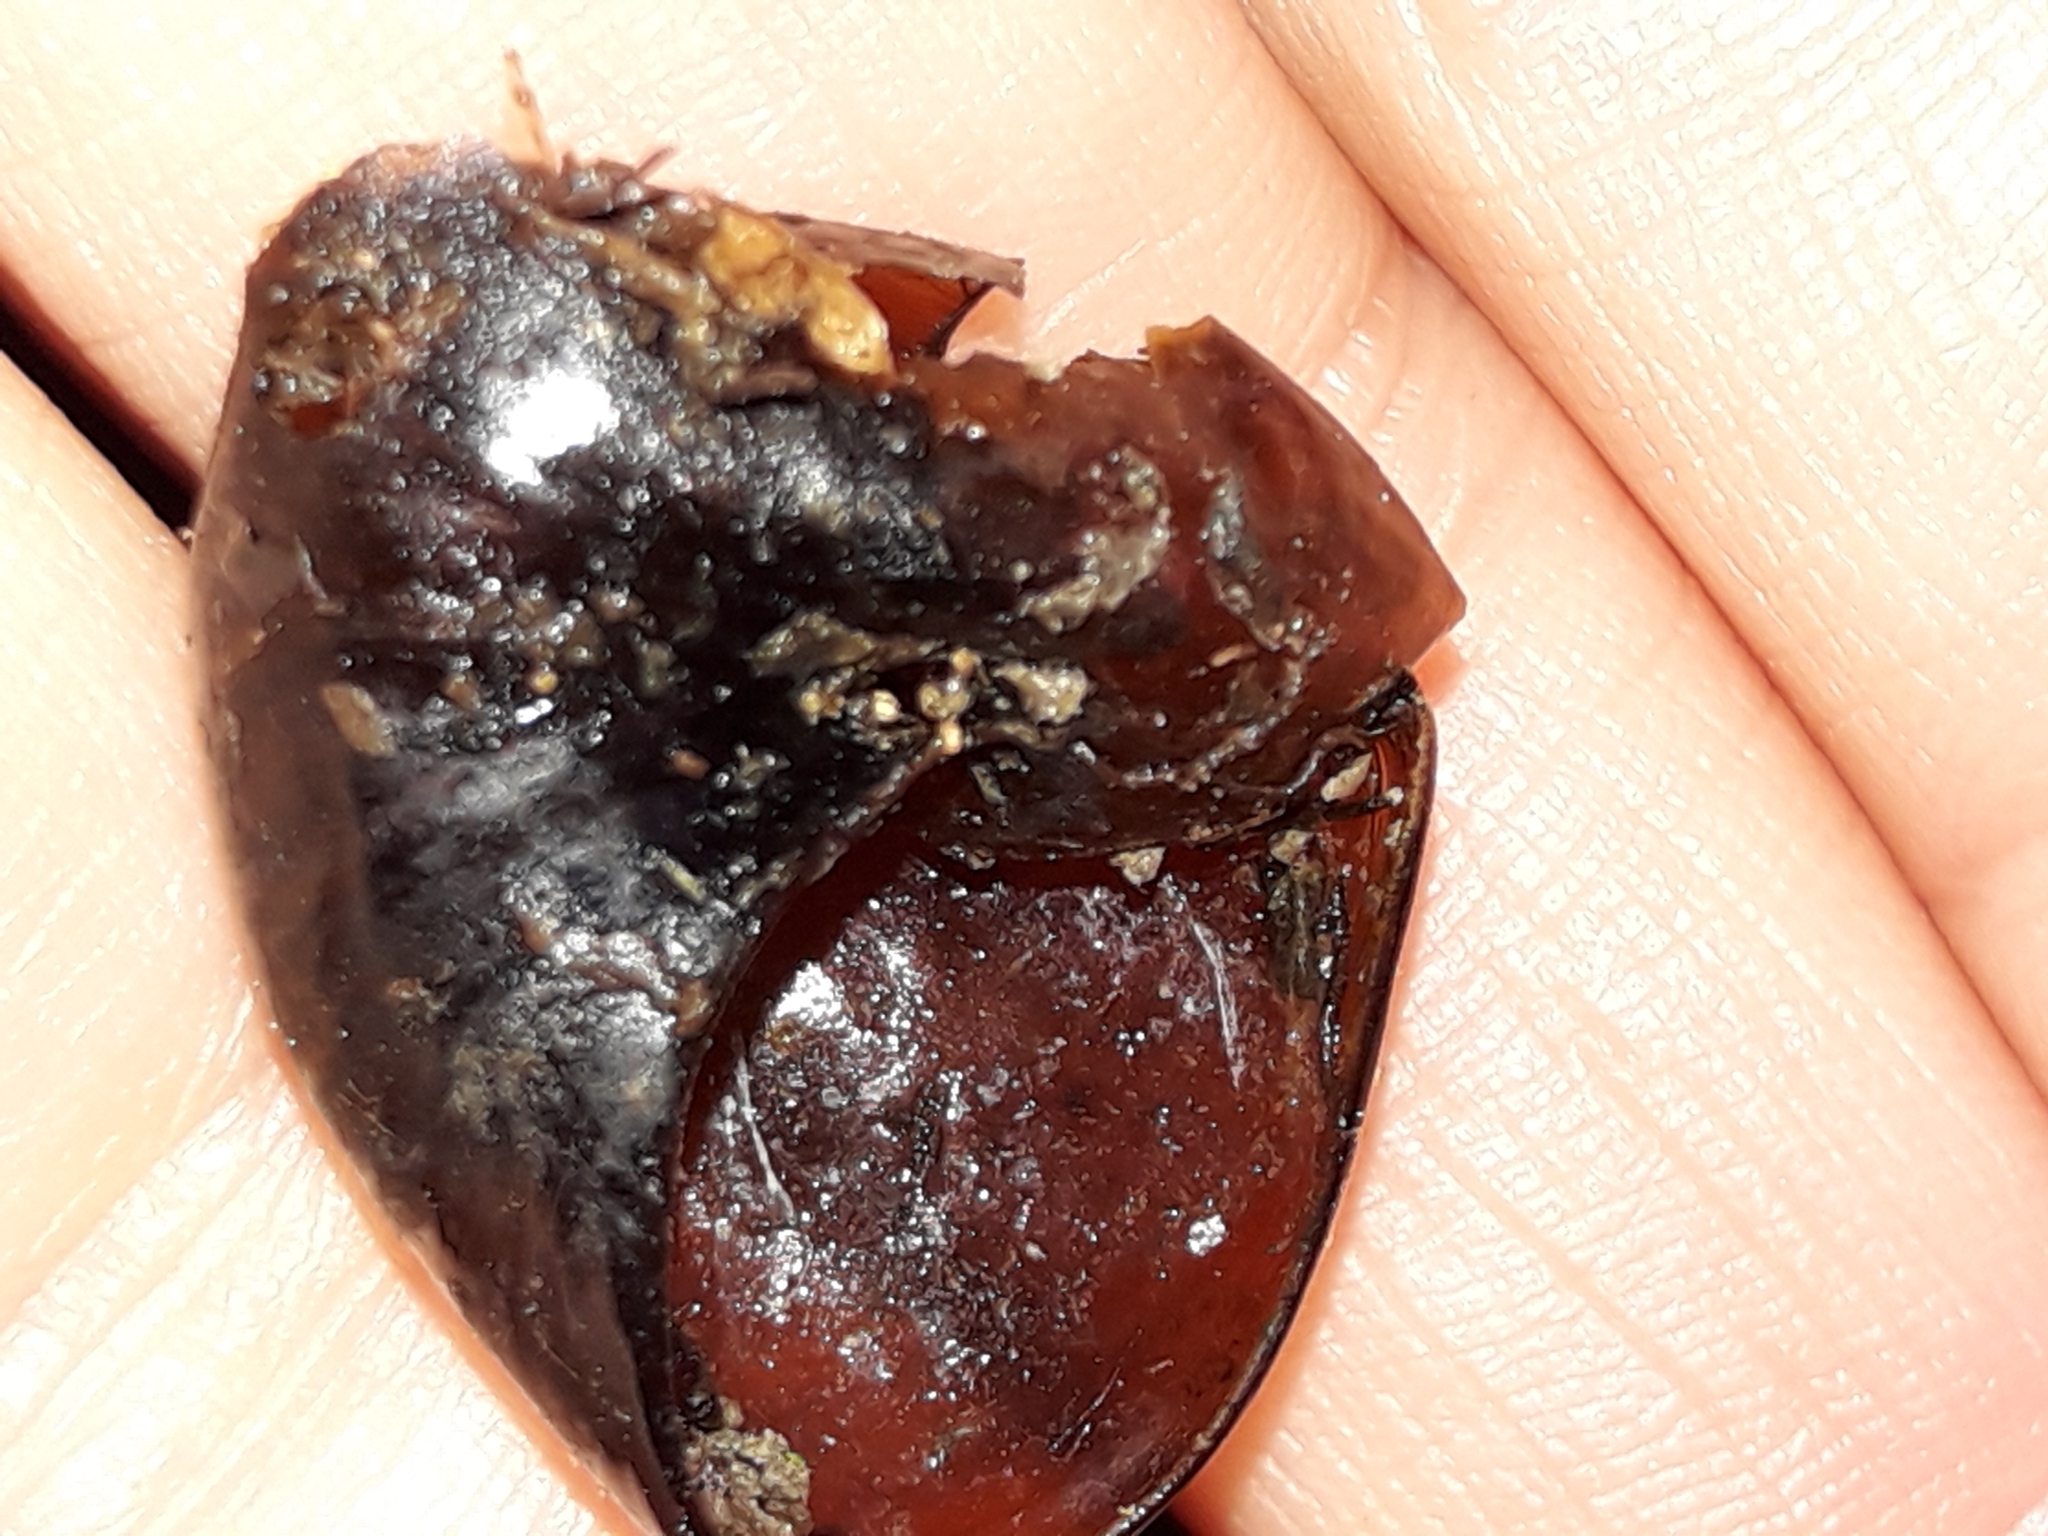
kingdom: Animalia
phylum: Mollusca
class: Gastropoda
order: Stylommatophora
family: Rhytididae
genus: Wainuia
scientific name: Wainuia urnula
